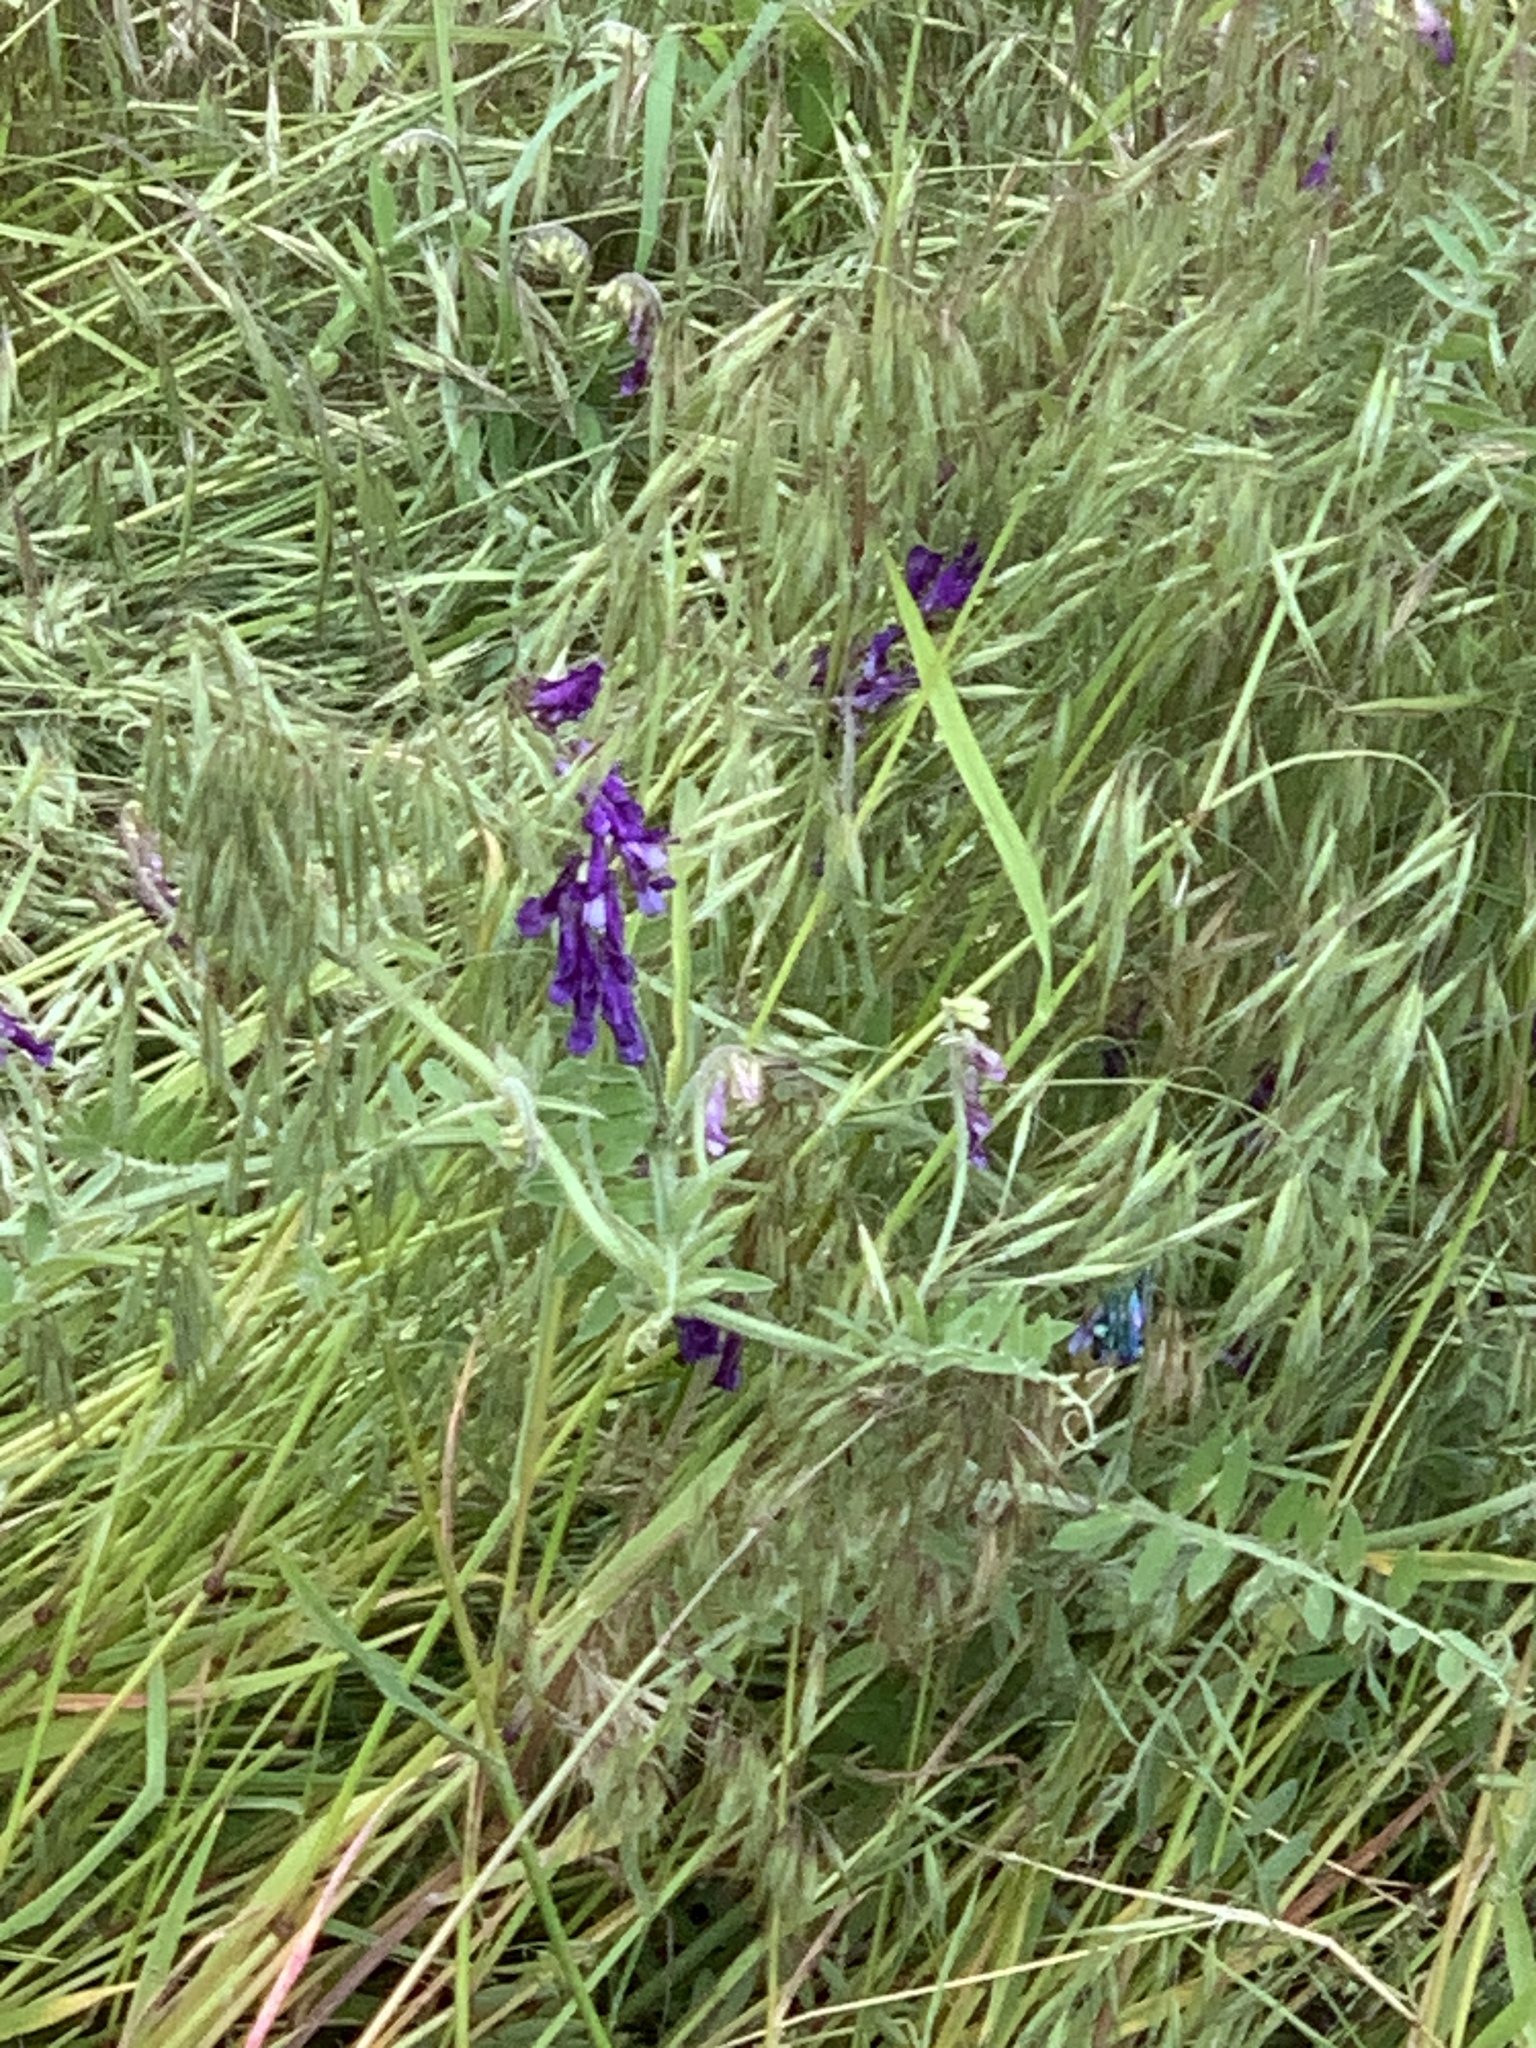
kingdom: Plantae
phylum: Tracheophyta
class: Magnoliopsida
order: Fabales
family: Fabaceae
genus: Vicia
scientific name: Vicia villosa
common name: Fodder vetch
